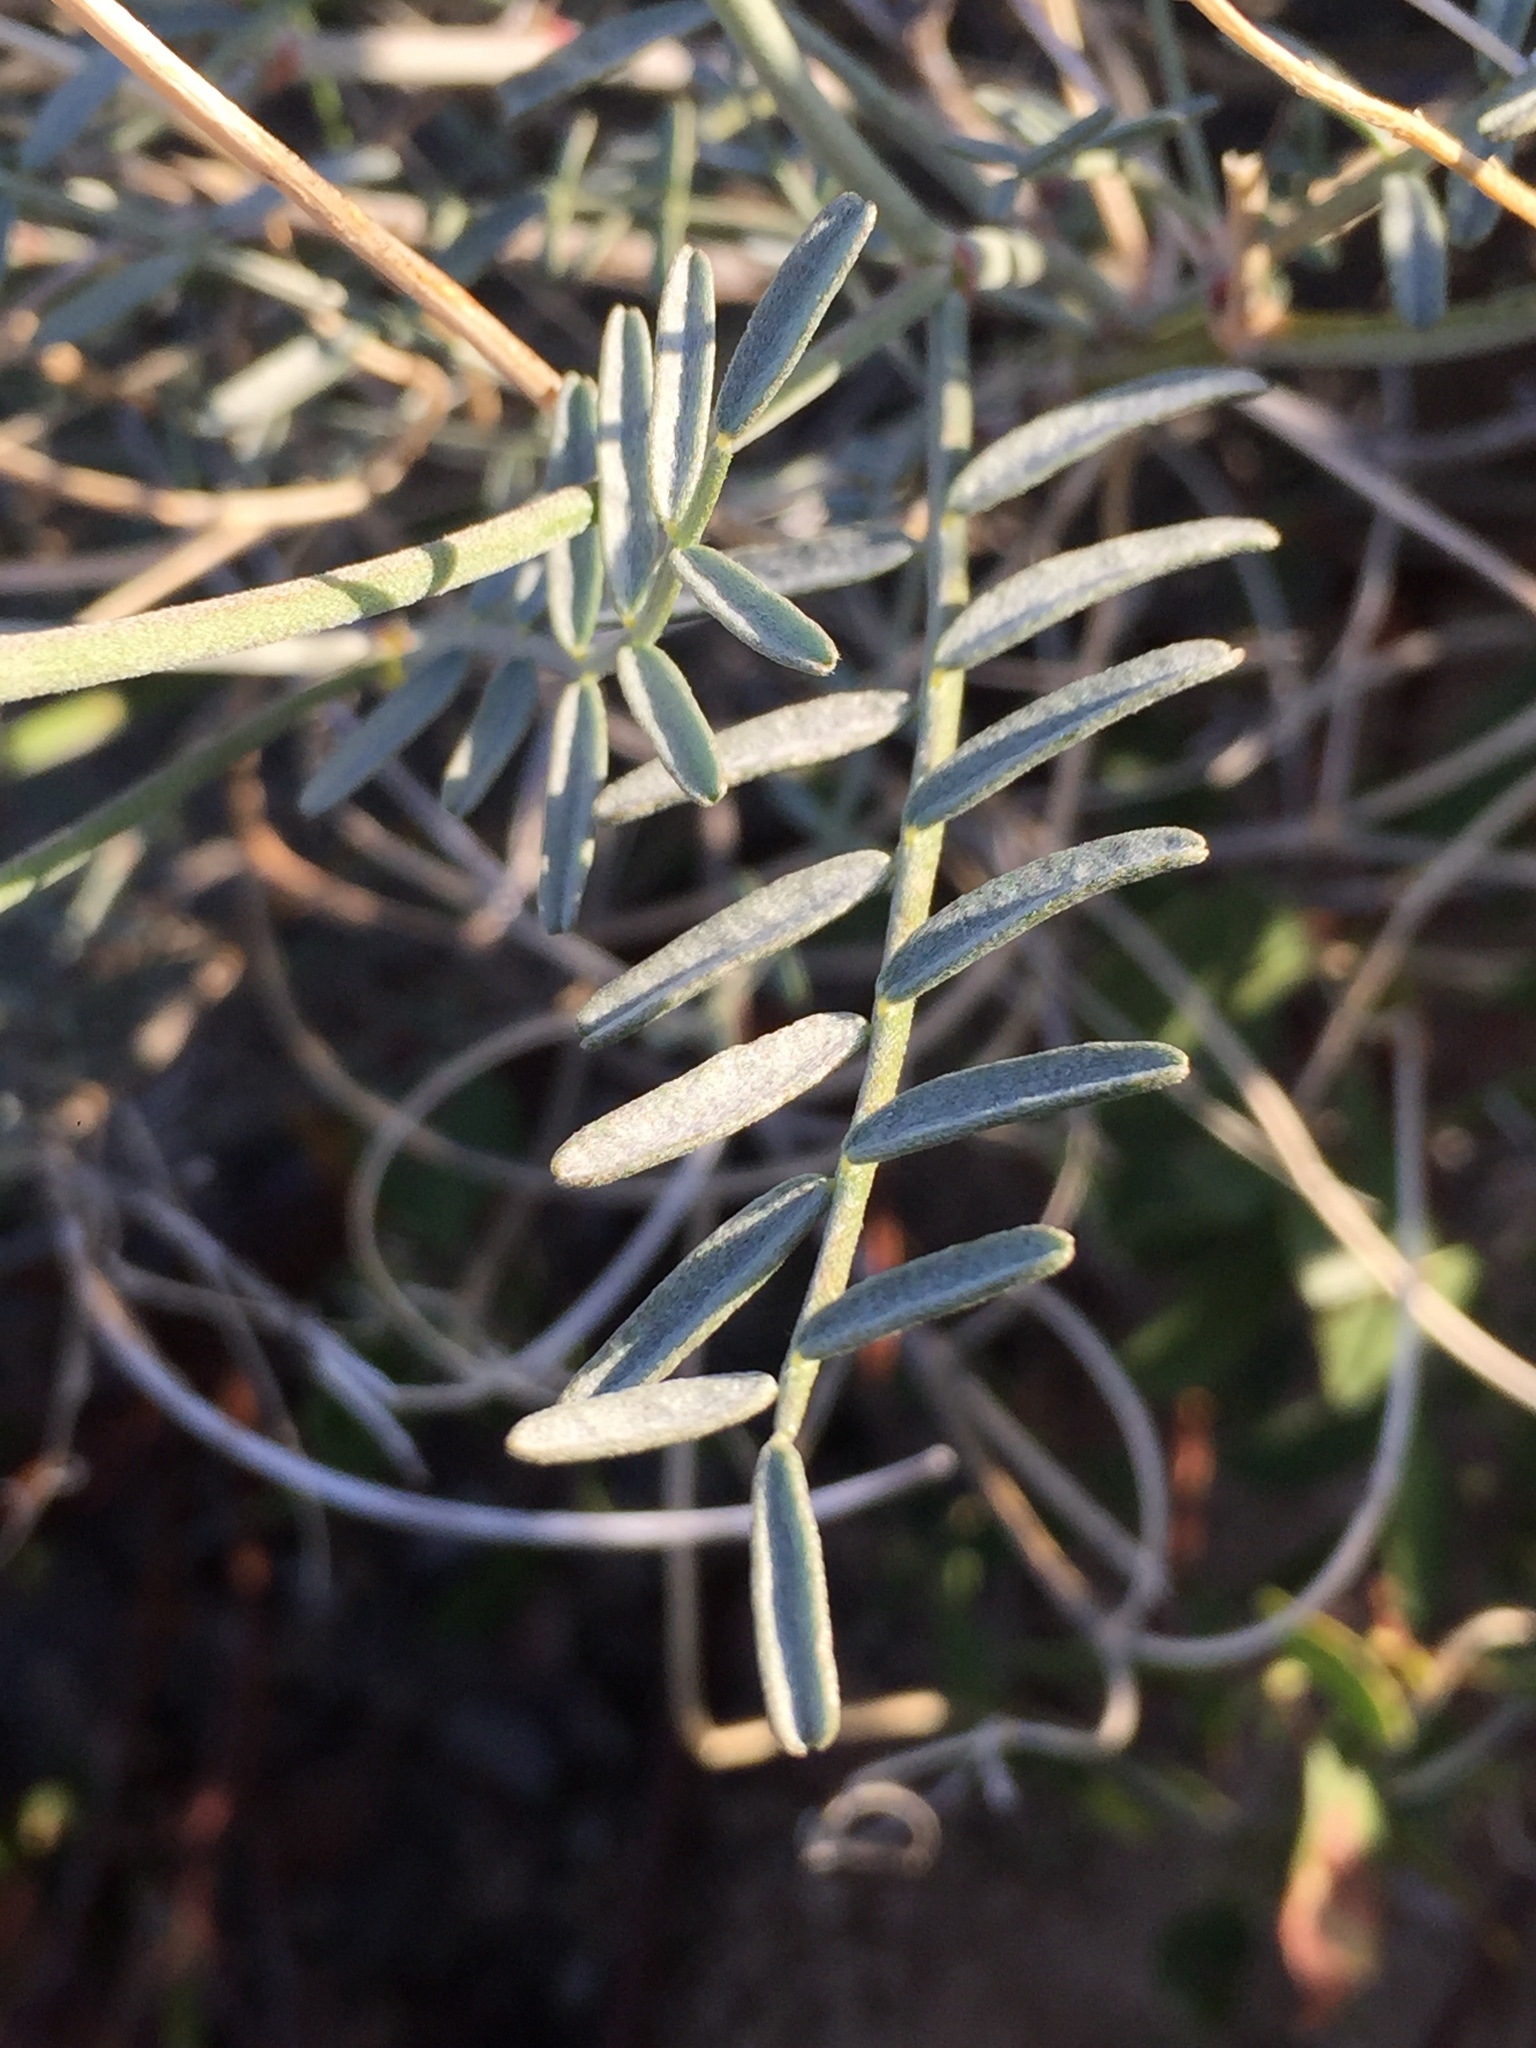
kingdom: Plantae
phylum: Tracheophyta
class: Magnoliopsida
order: Fabales
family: Fabaceae
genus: Lathyrus
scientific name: Lathyrus vestitus
